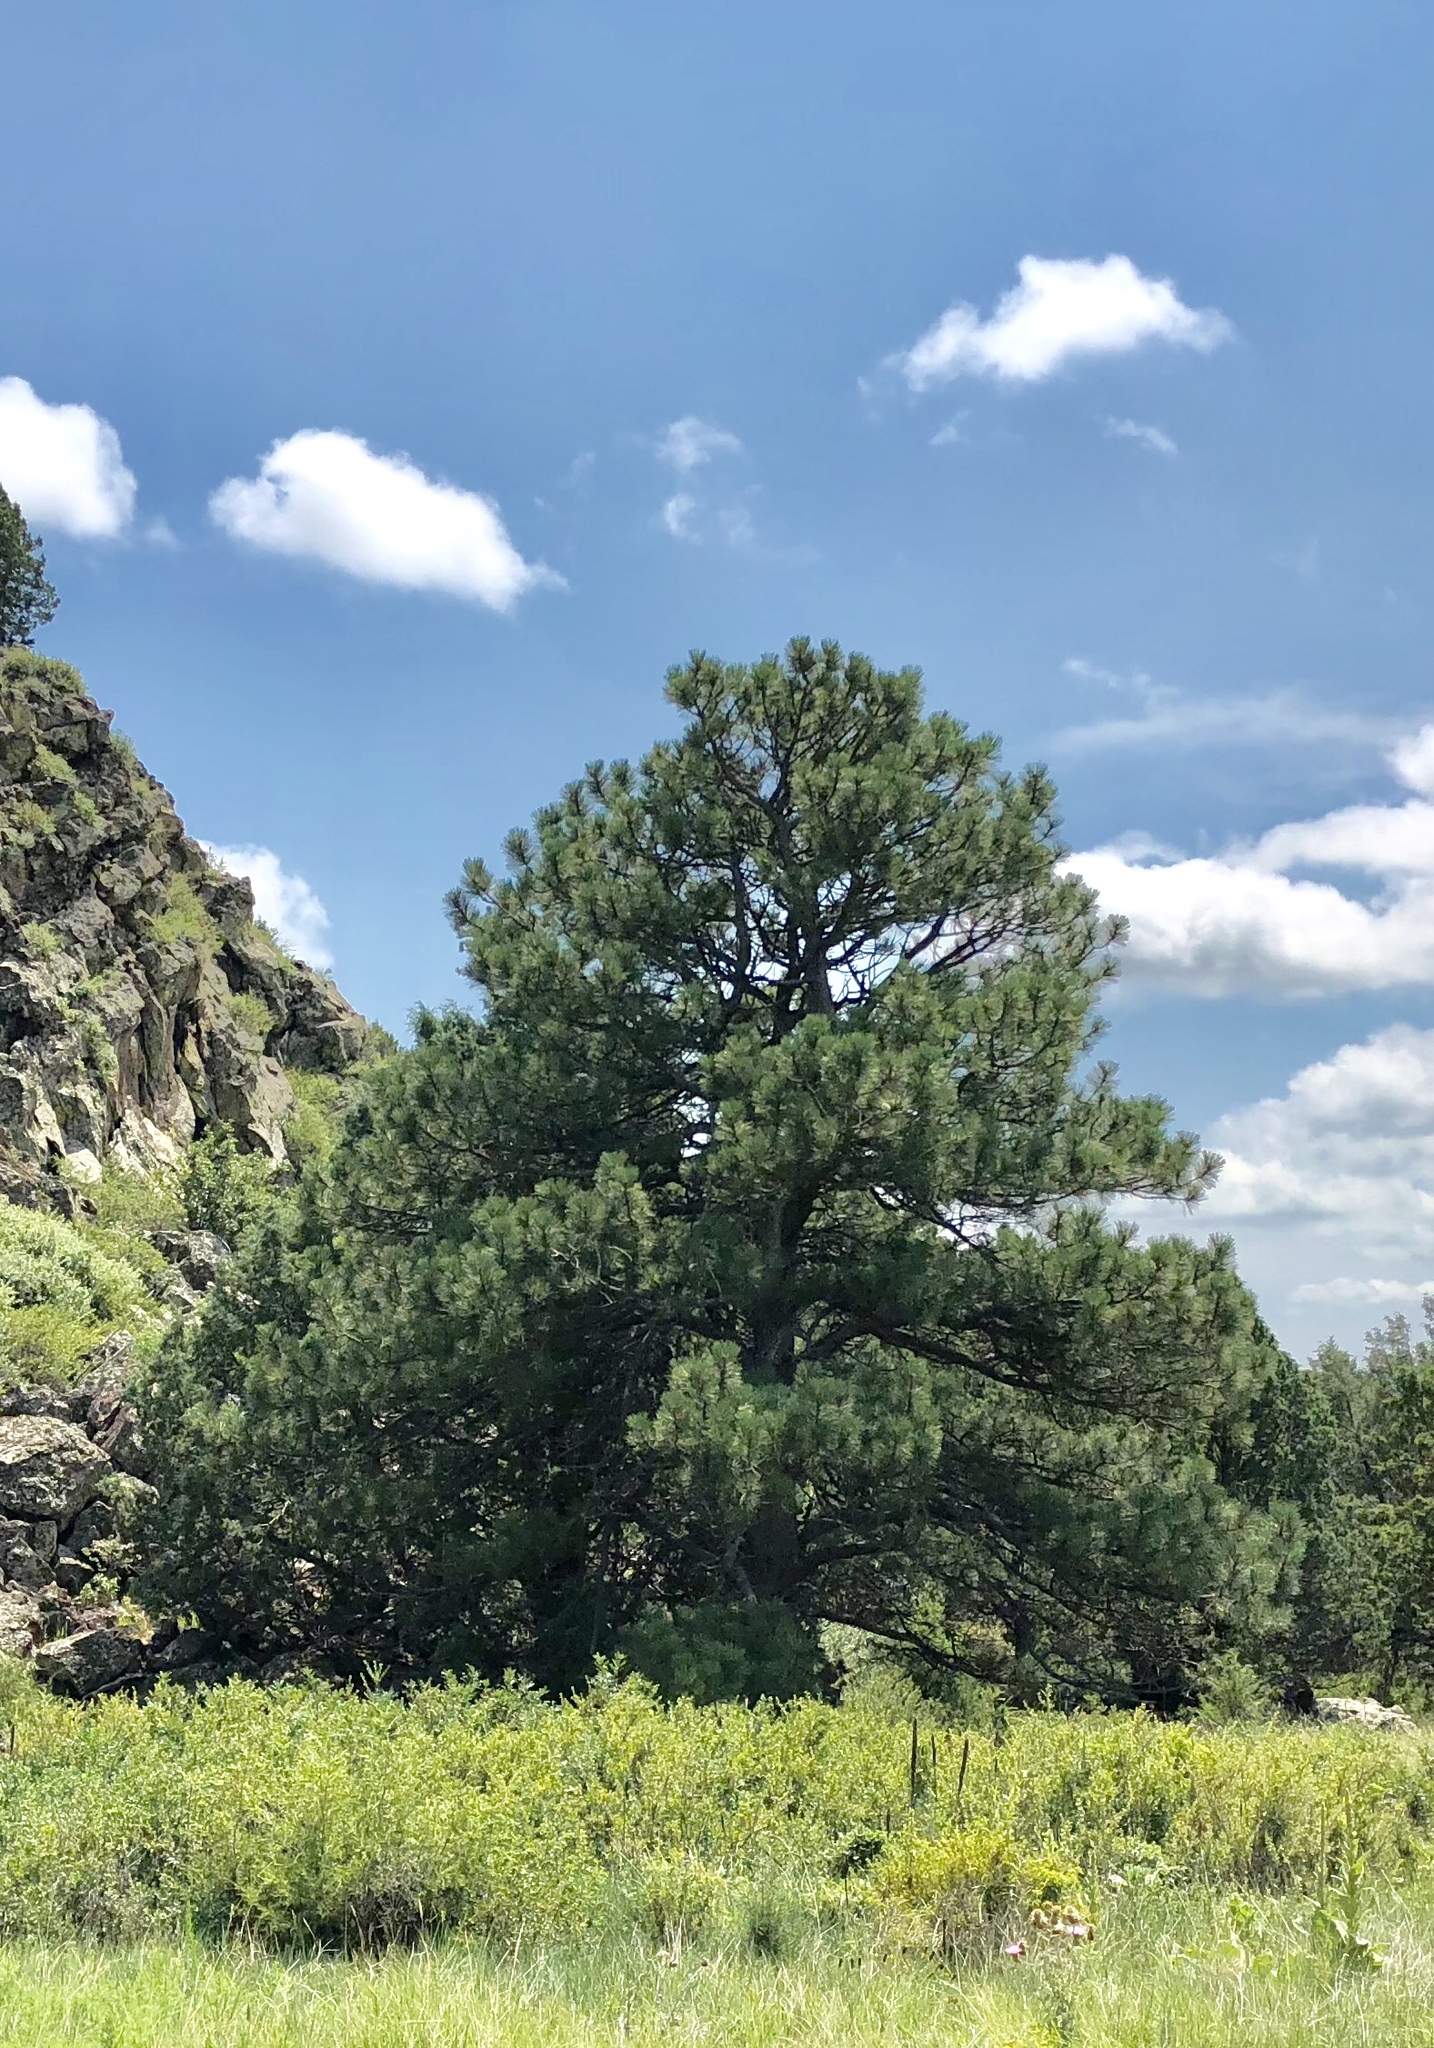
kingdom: Plantae
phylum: Tracheophyta
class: Pinopsida
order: Pinales
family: Pinaceae
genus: Pinus
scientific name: Pinus ponderosa
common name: Western yellow-pine
